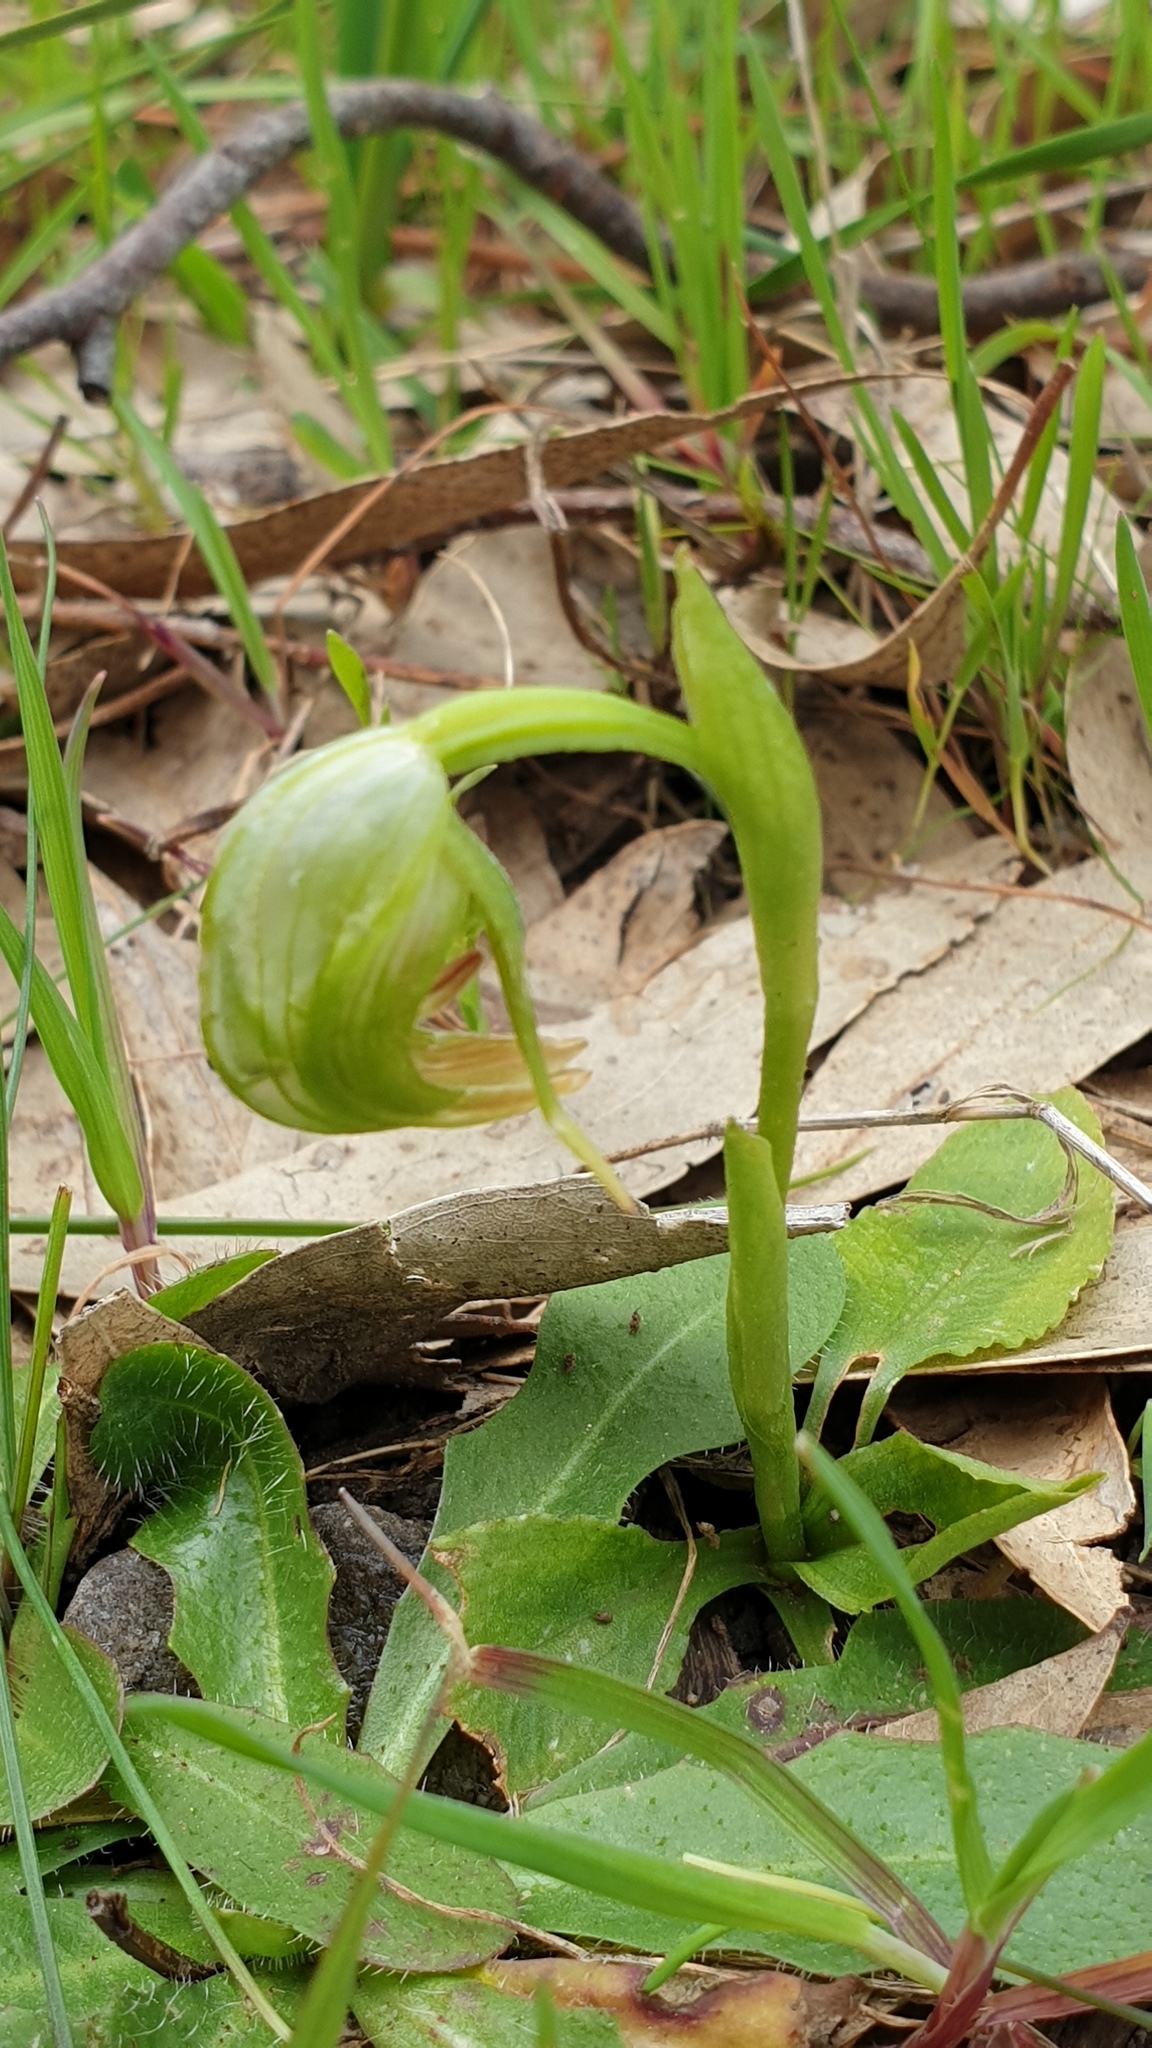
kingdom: Plantae
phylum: Tracheophyta
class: Liliopsida
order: Asparagales
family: Orchidaceae
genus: Pterostylis
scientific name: Pterostylis nutans
